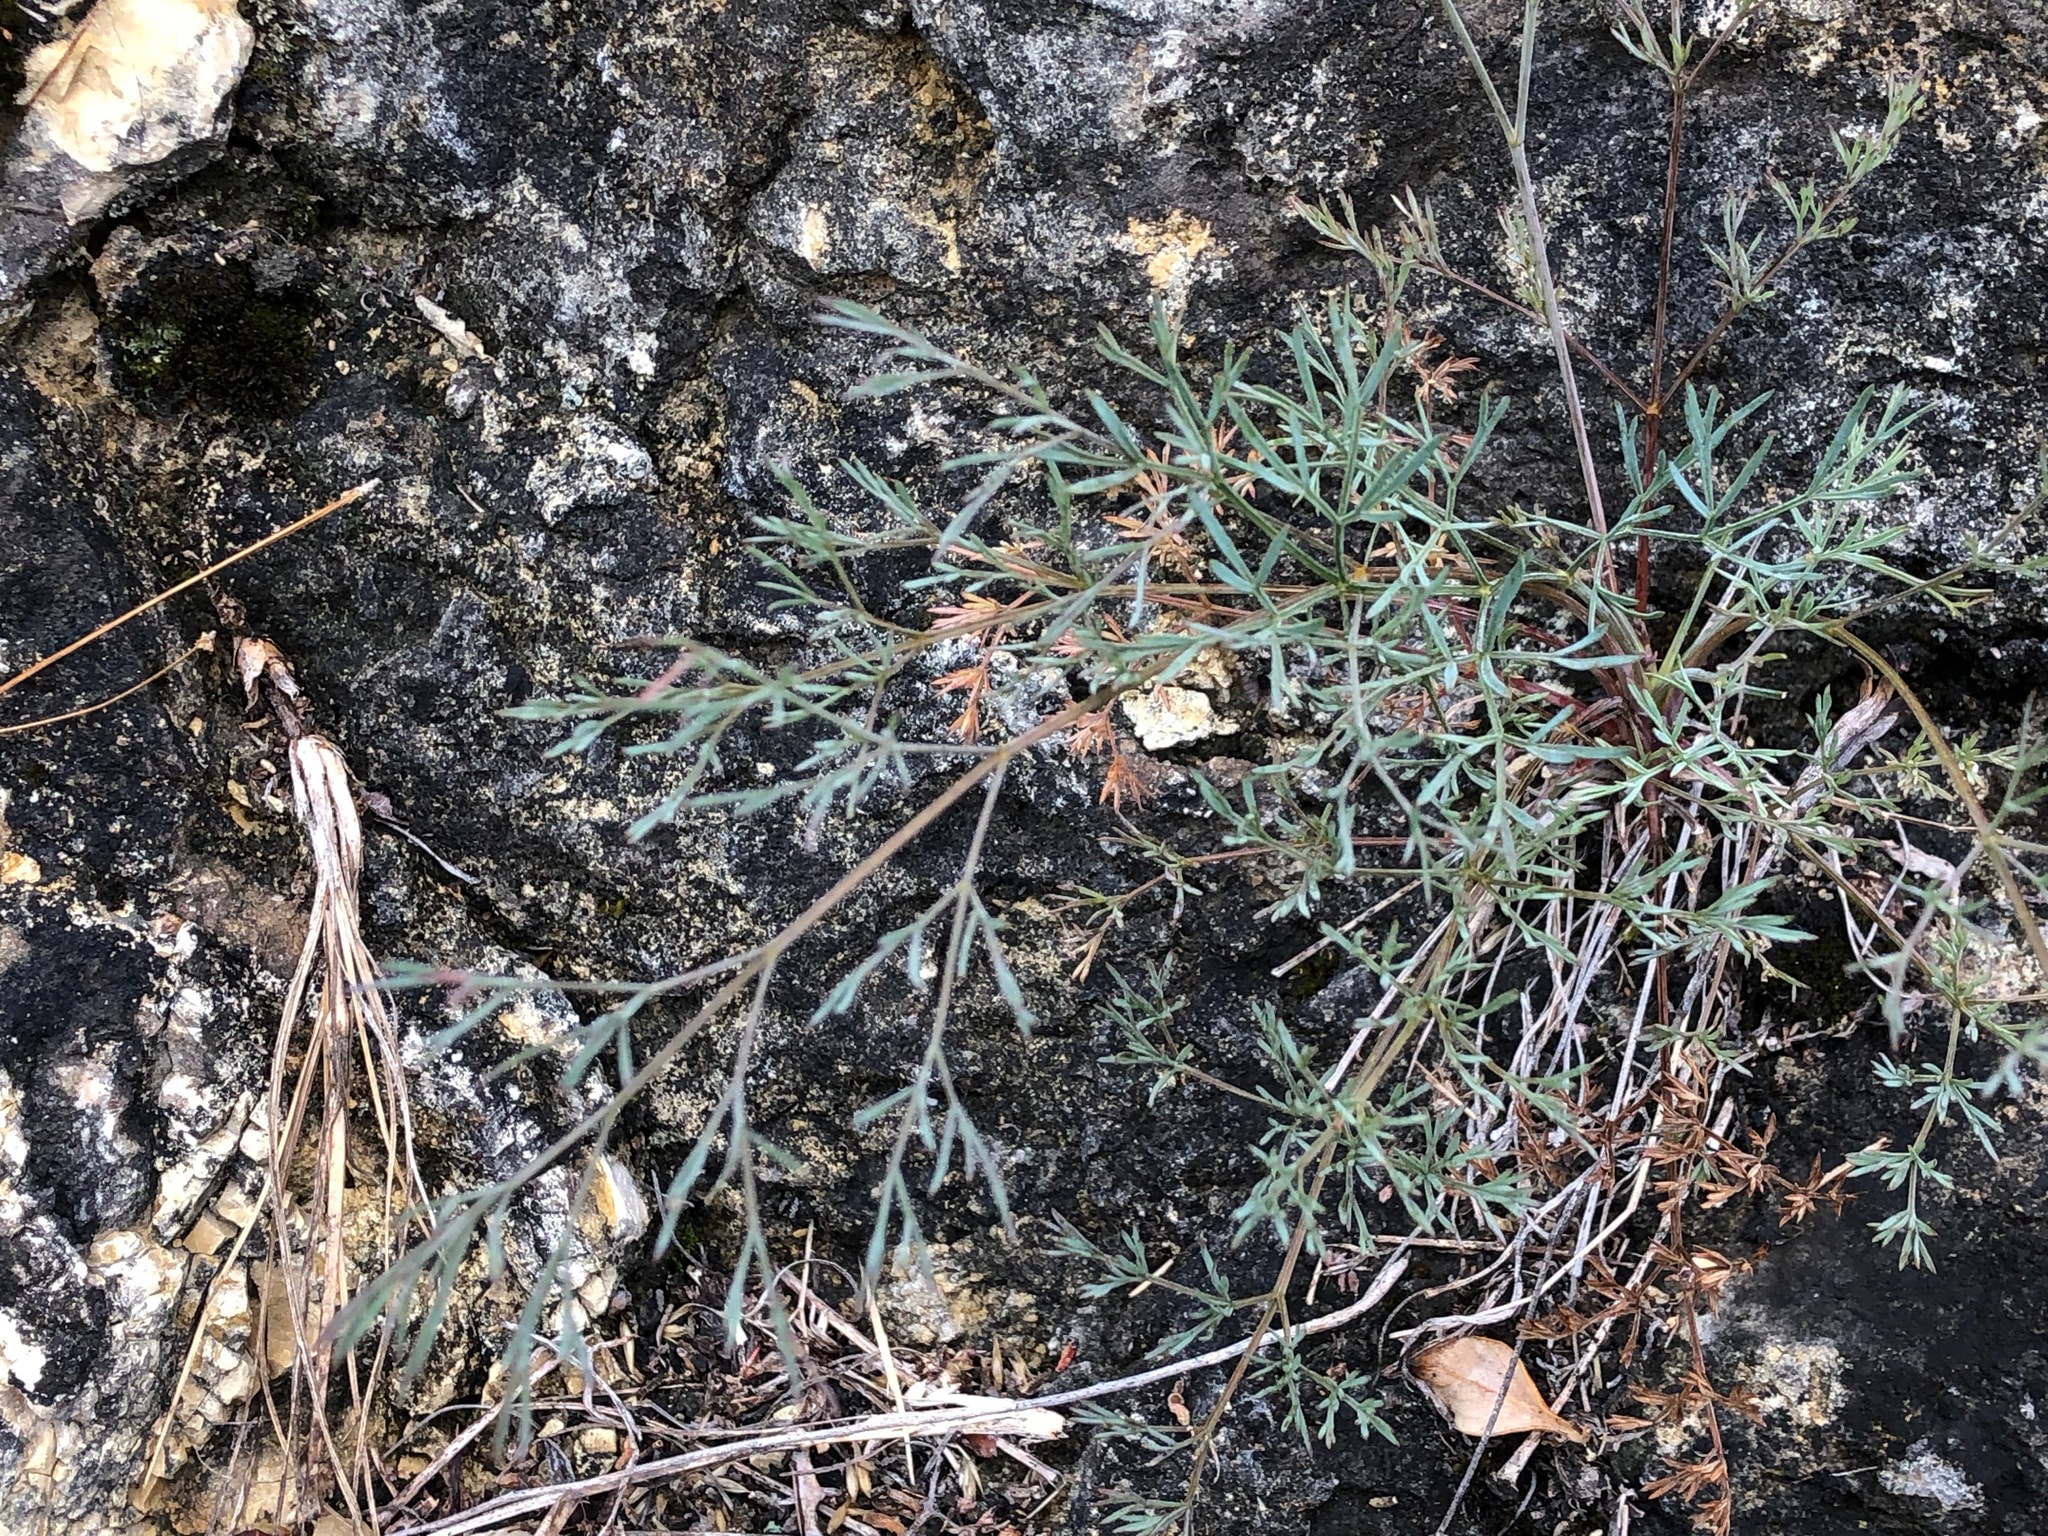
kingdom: Plantae
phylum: Tracheophyta
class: Magnoliopsida
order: Apiales
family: Apiaceae
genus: Trinia
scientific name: Trinia glauca
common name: Honewort
